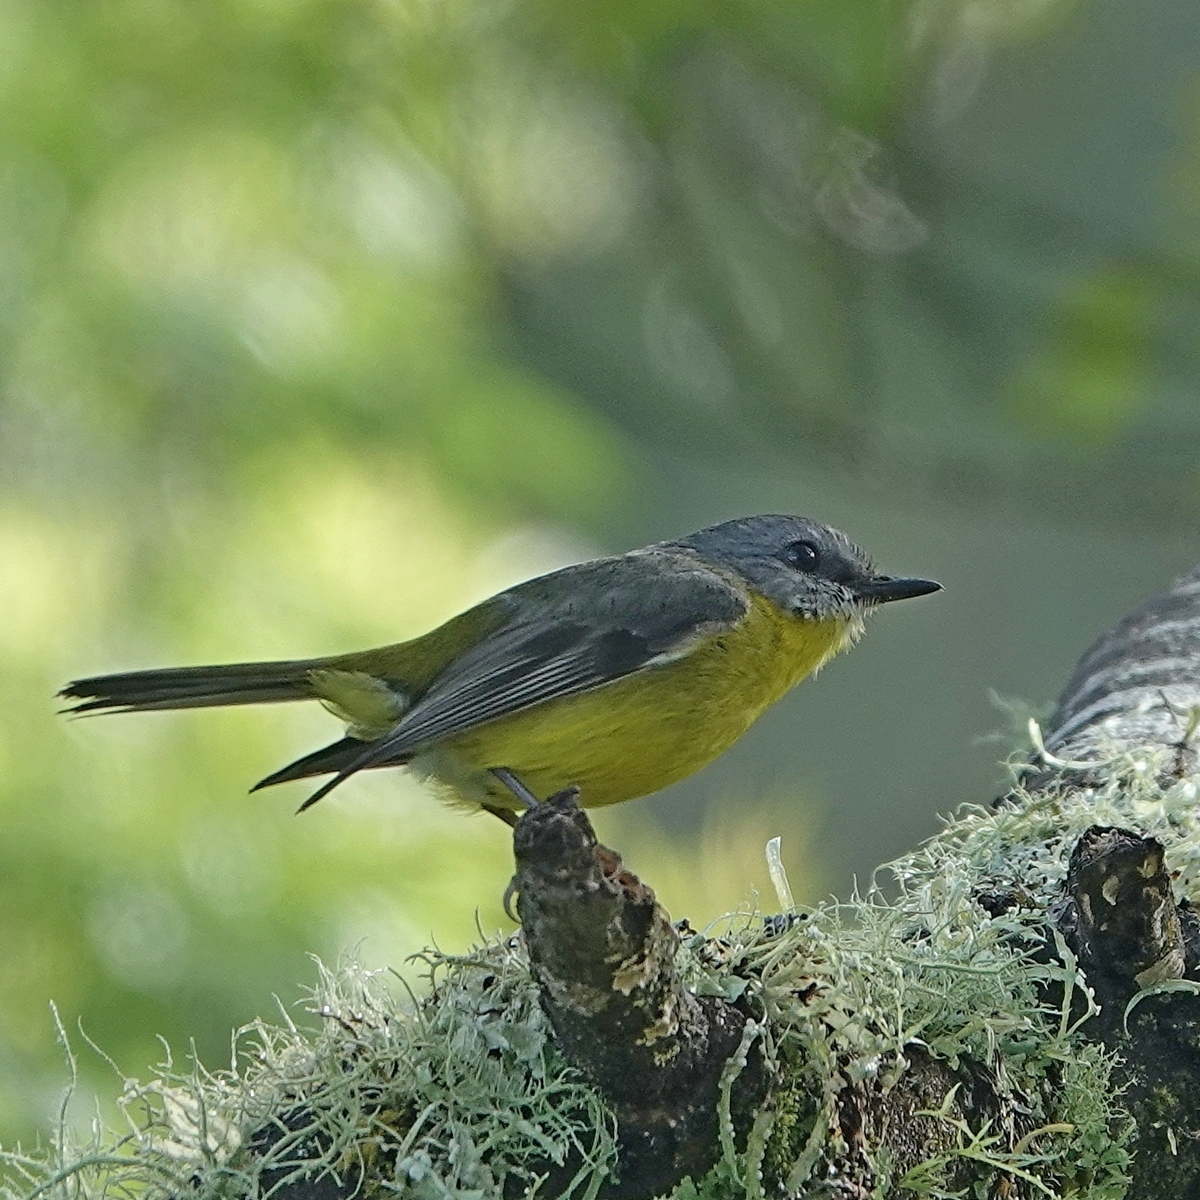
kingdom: Animalia
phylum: Chordata
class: Aves
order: Passeriformes
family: Petroicidae
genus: Eopsaltria
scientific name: Eopsaltria australis
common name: Eastern yellow robin
